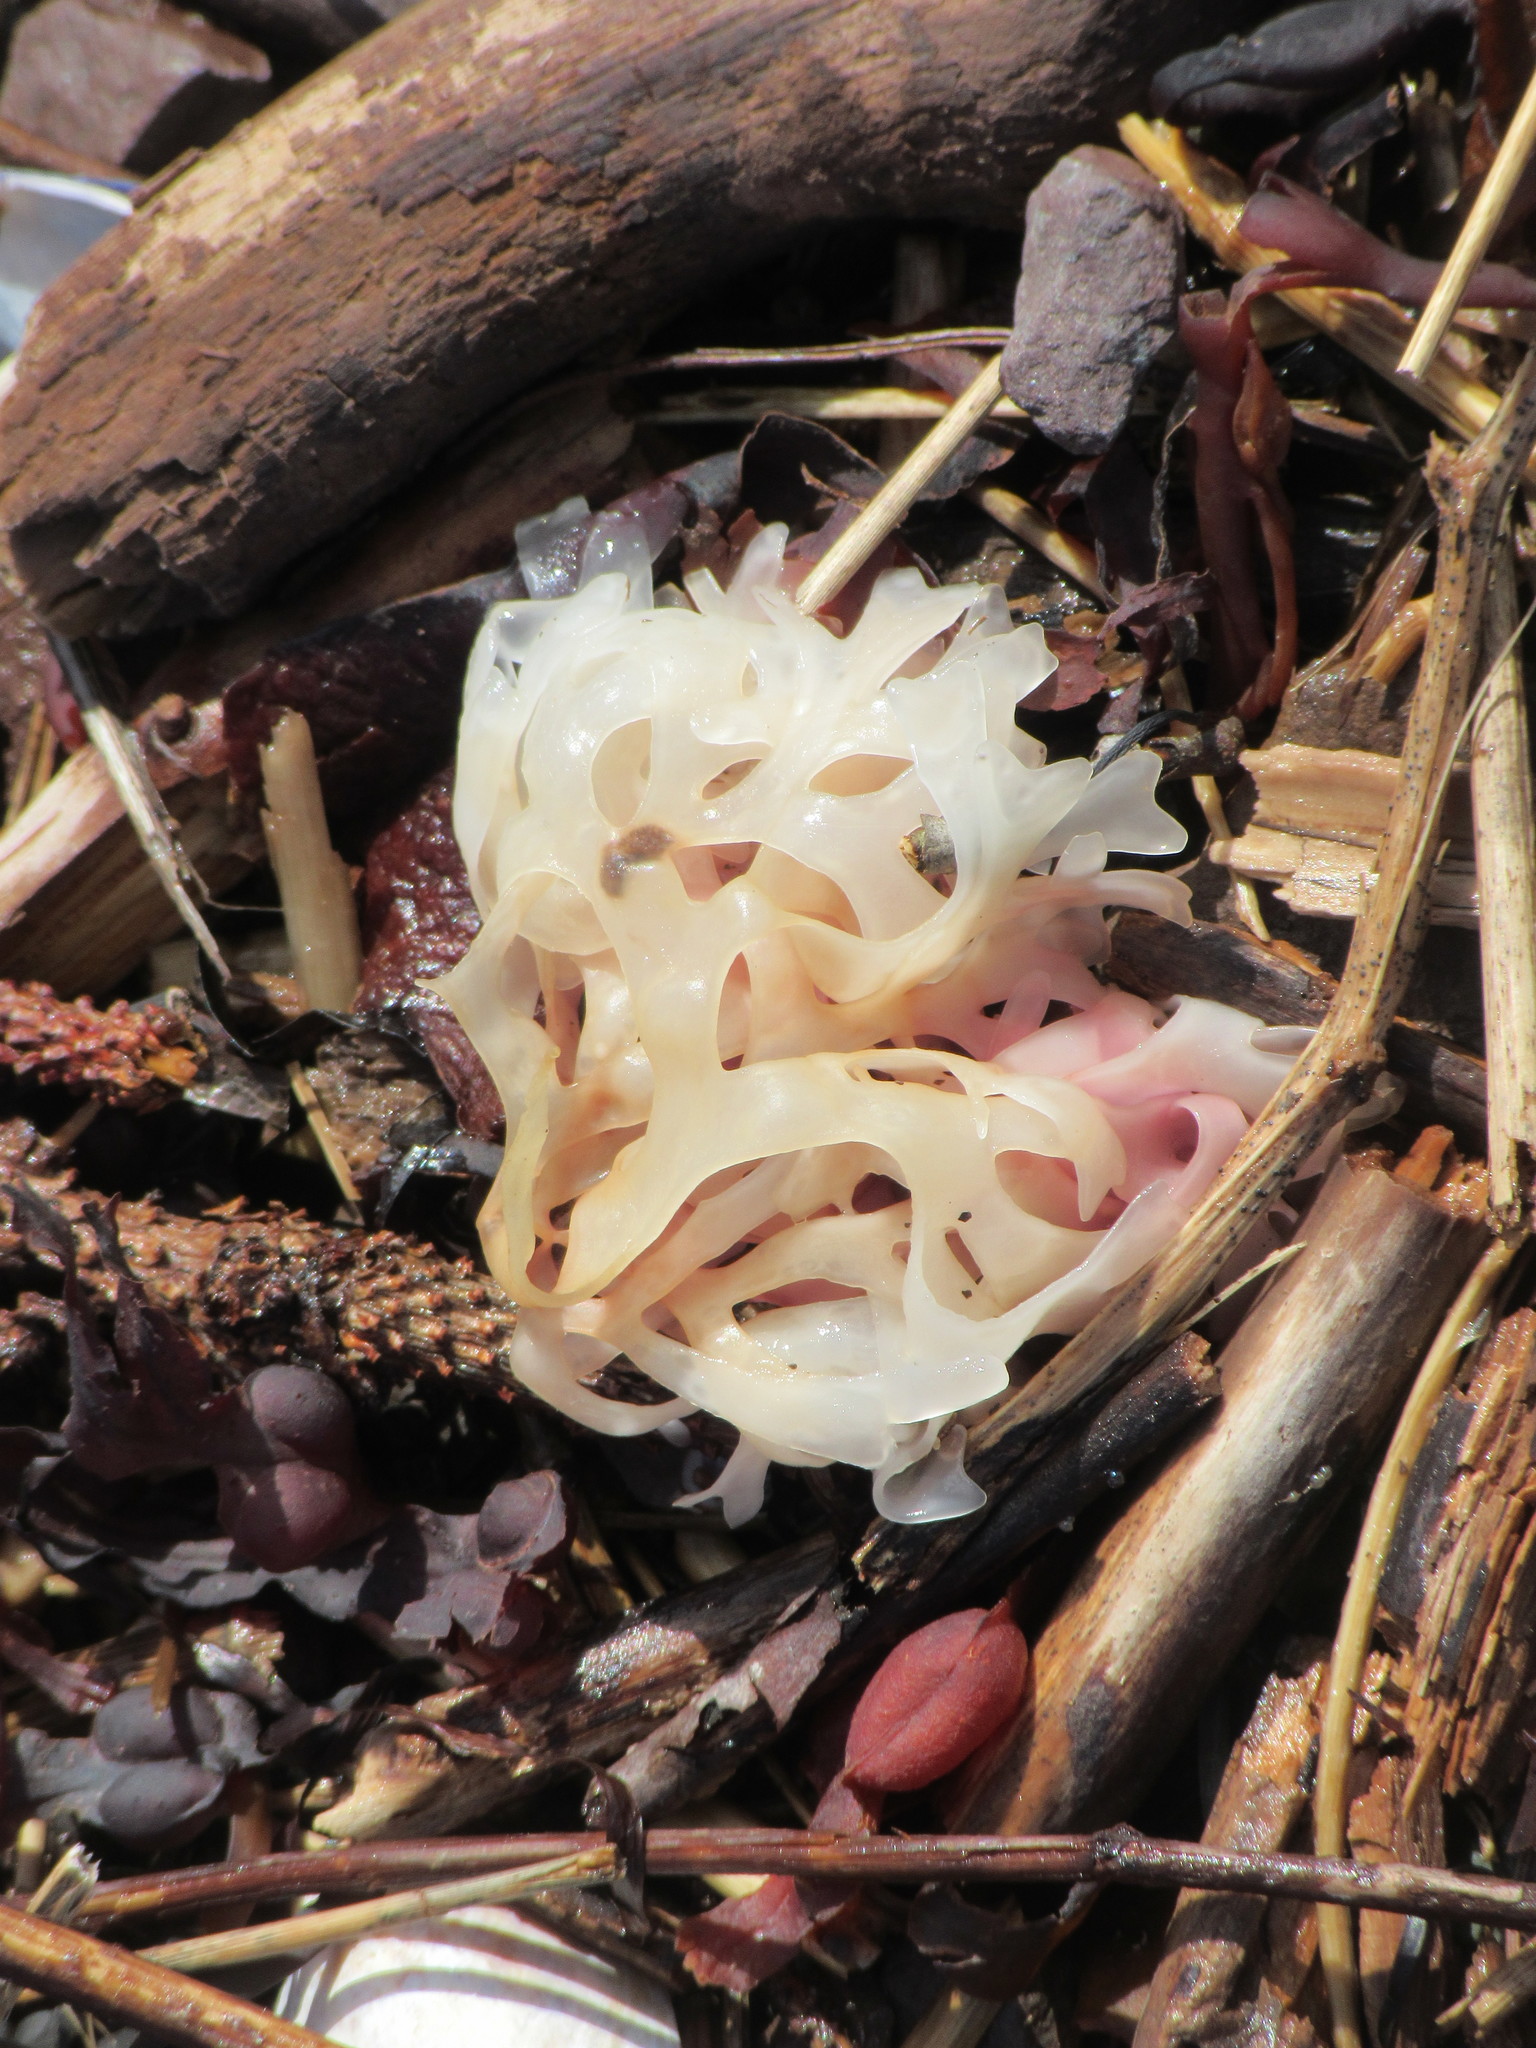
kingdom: Plantae
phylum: Rhodophyta
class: Florideophyceae
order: Gigartinales
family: Gigartinaceae
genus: Chondrus
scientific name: Chondrus crispus
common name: Carrageen
